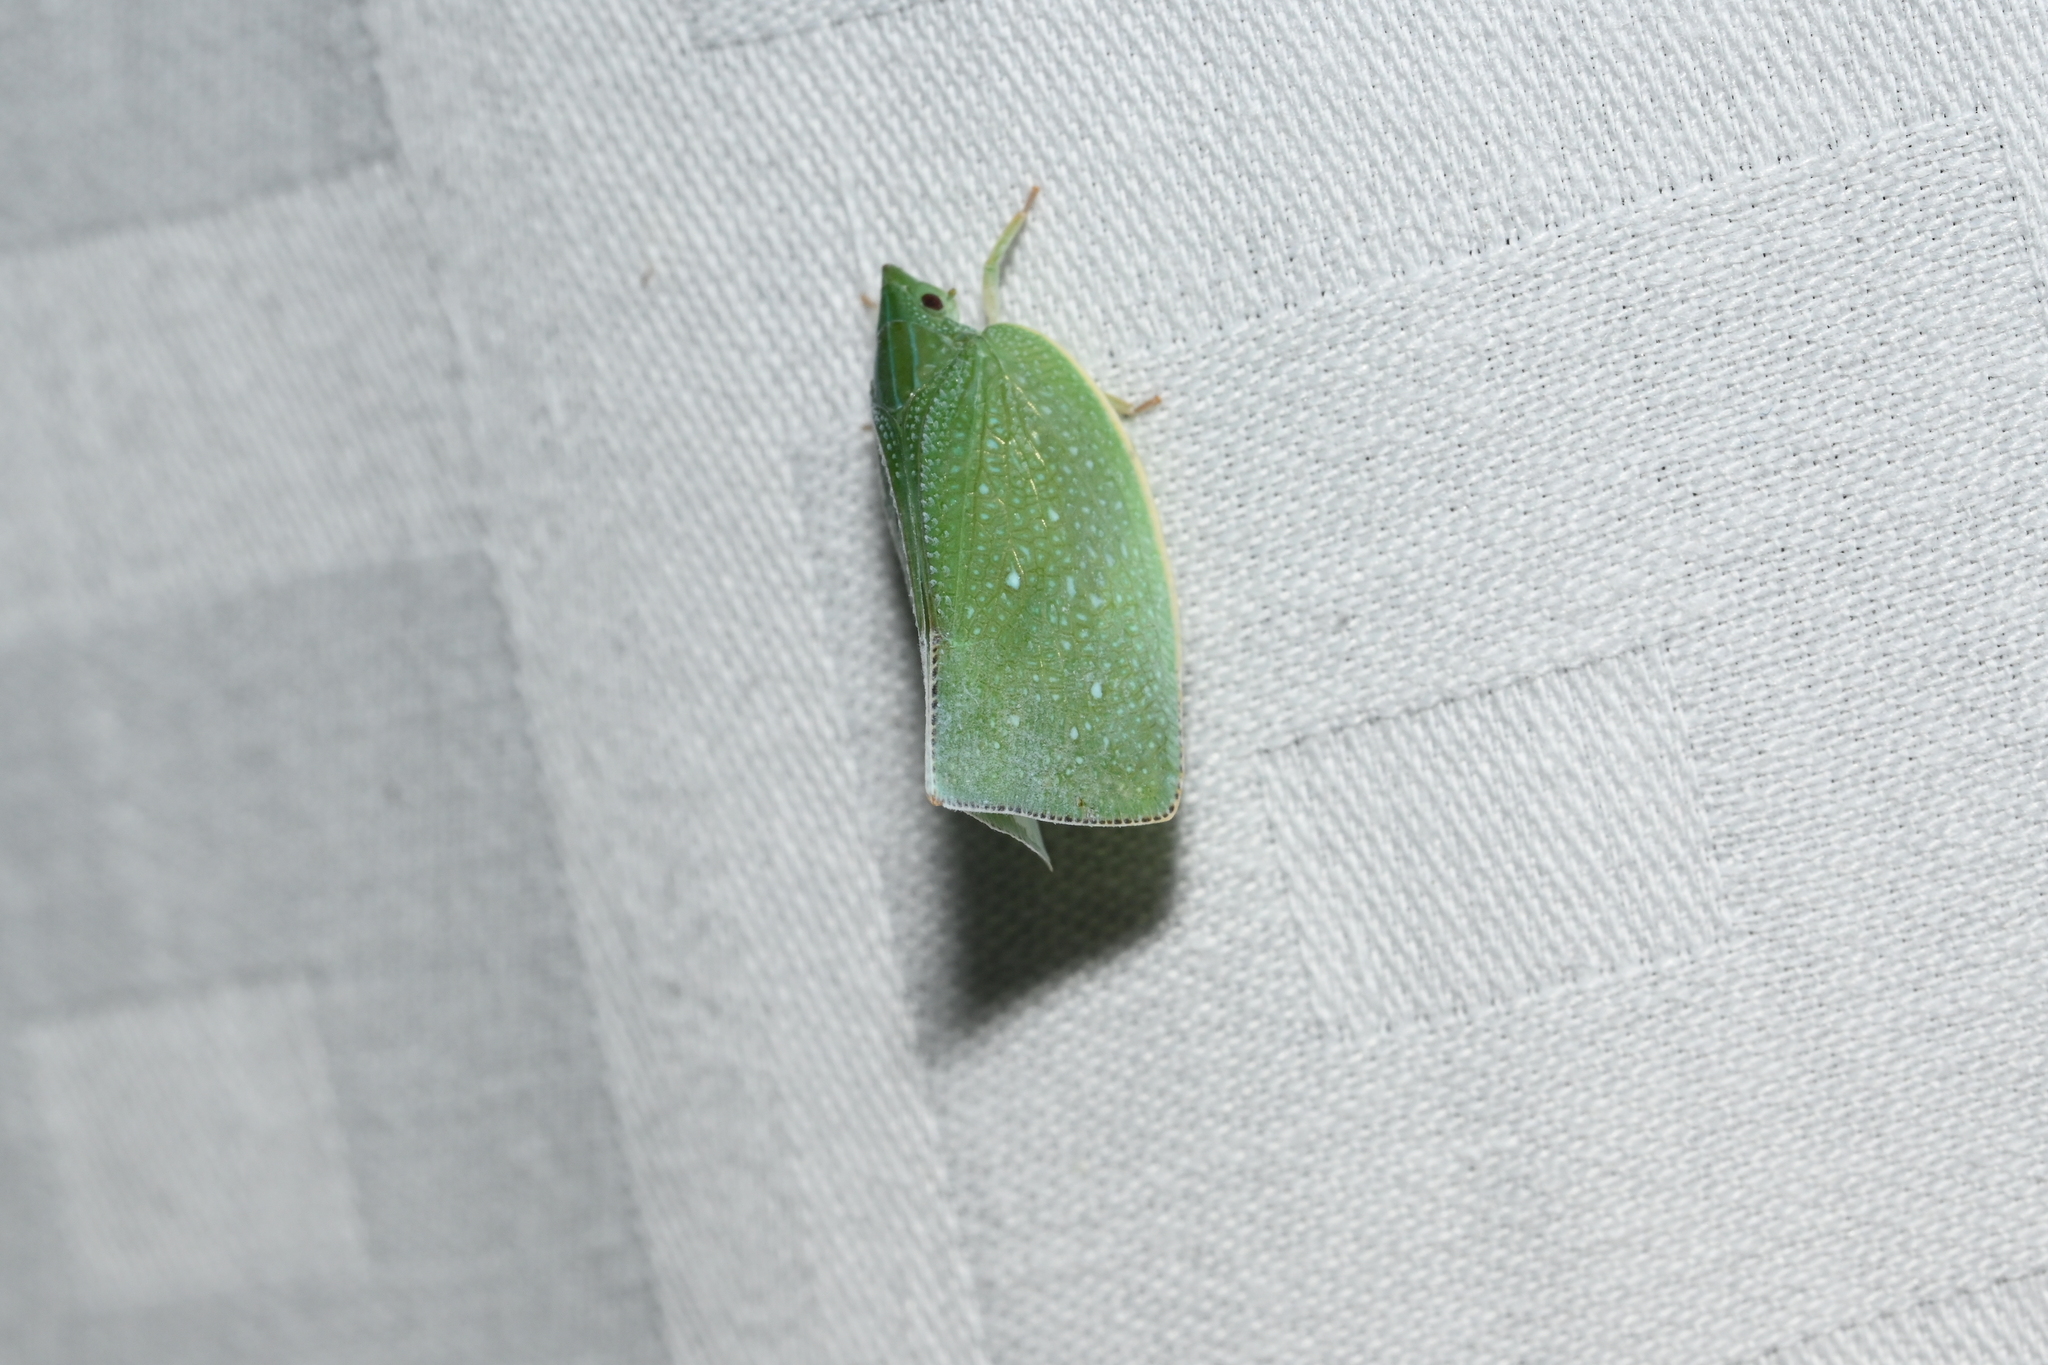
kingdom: Animalia
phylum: Arthropoda
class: Insecta
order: Hemiptera
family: Flatidae
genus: Cromna
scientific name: Cromna sinensis
